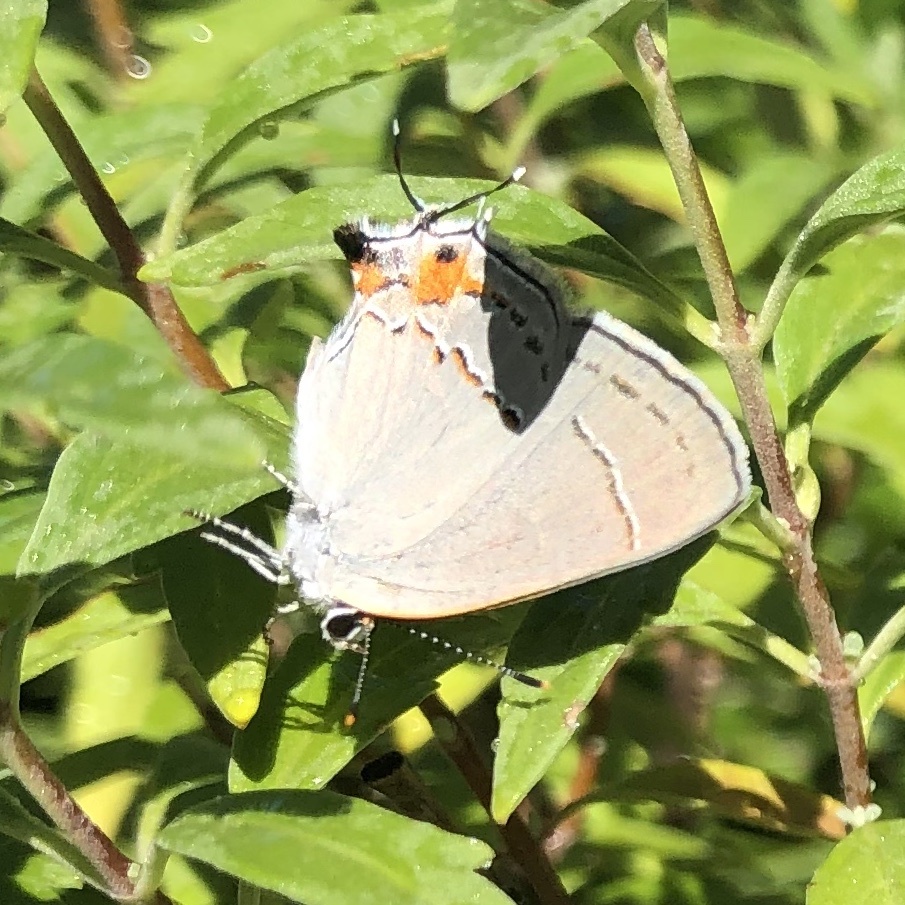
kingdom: Animalia
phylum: Arthropoda
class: Insecta
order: Lepidoptera
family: Lycaenidae
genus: Strymon
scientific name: Strymon melinus
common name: Gray hairstreak
